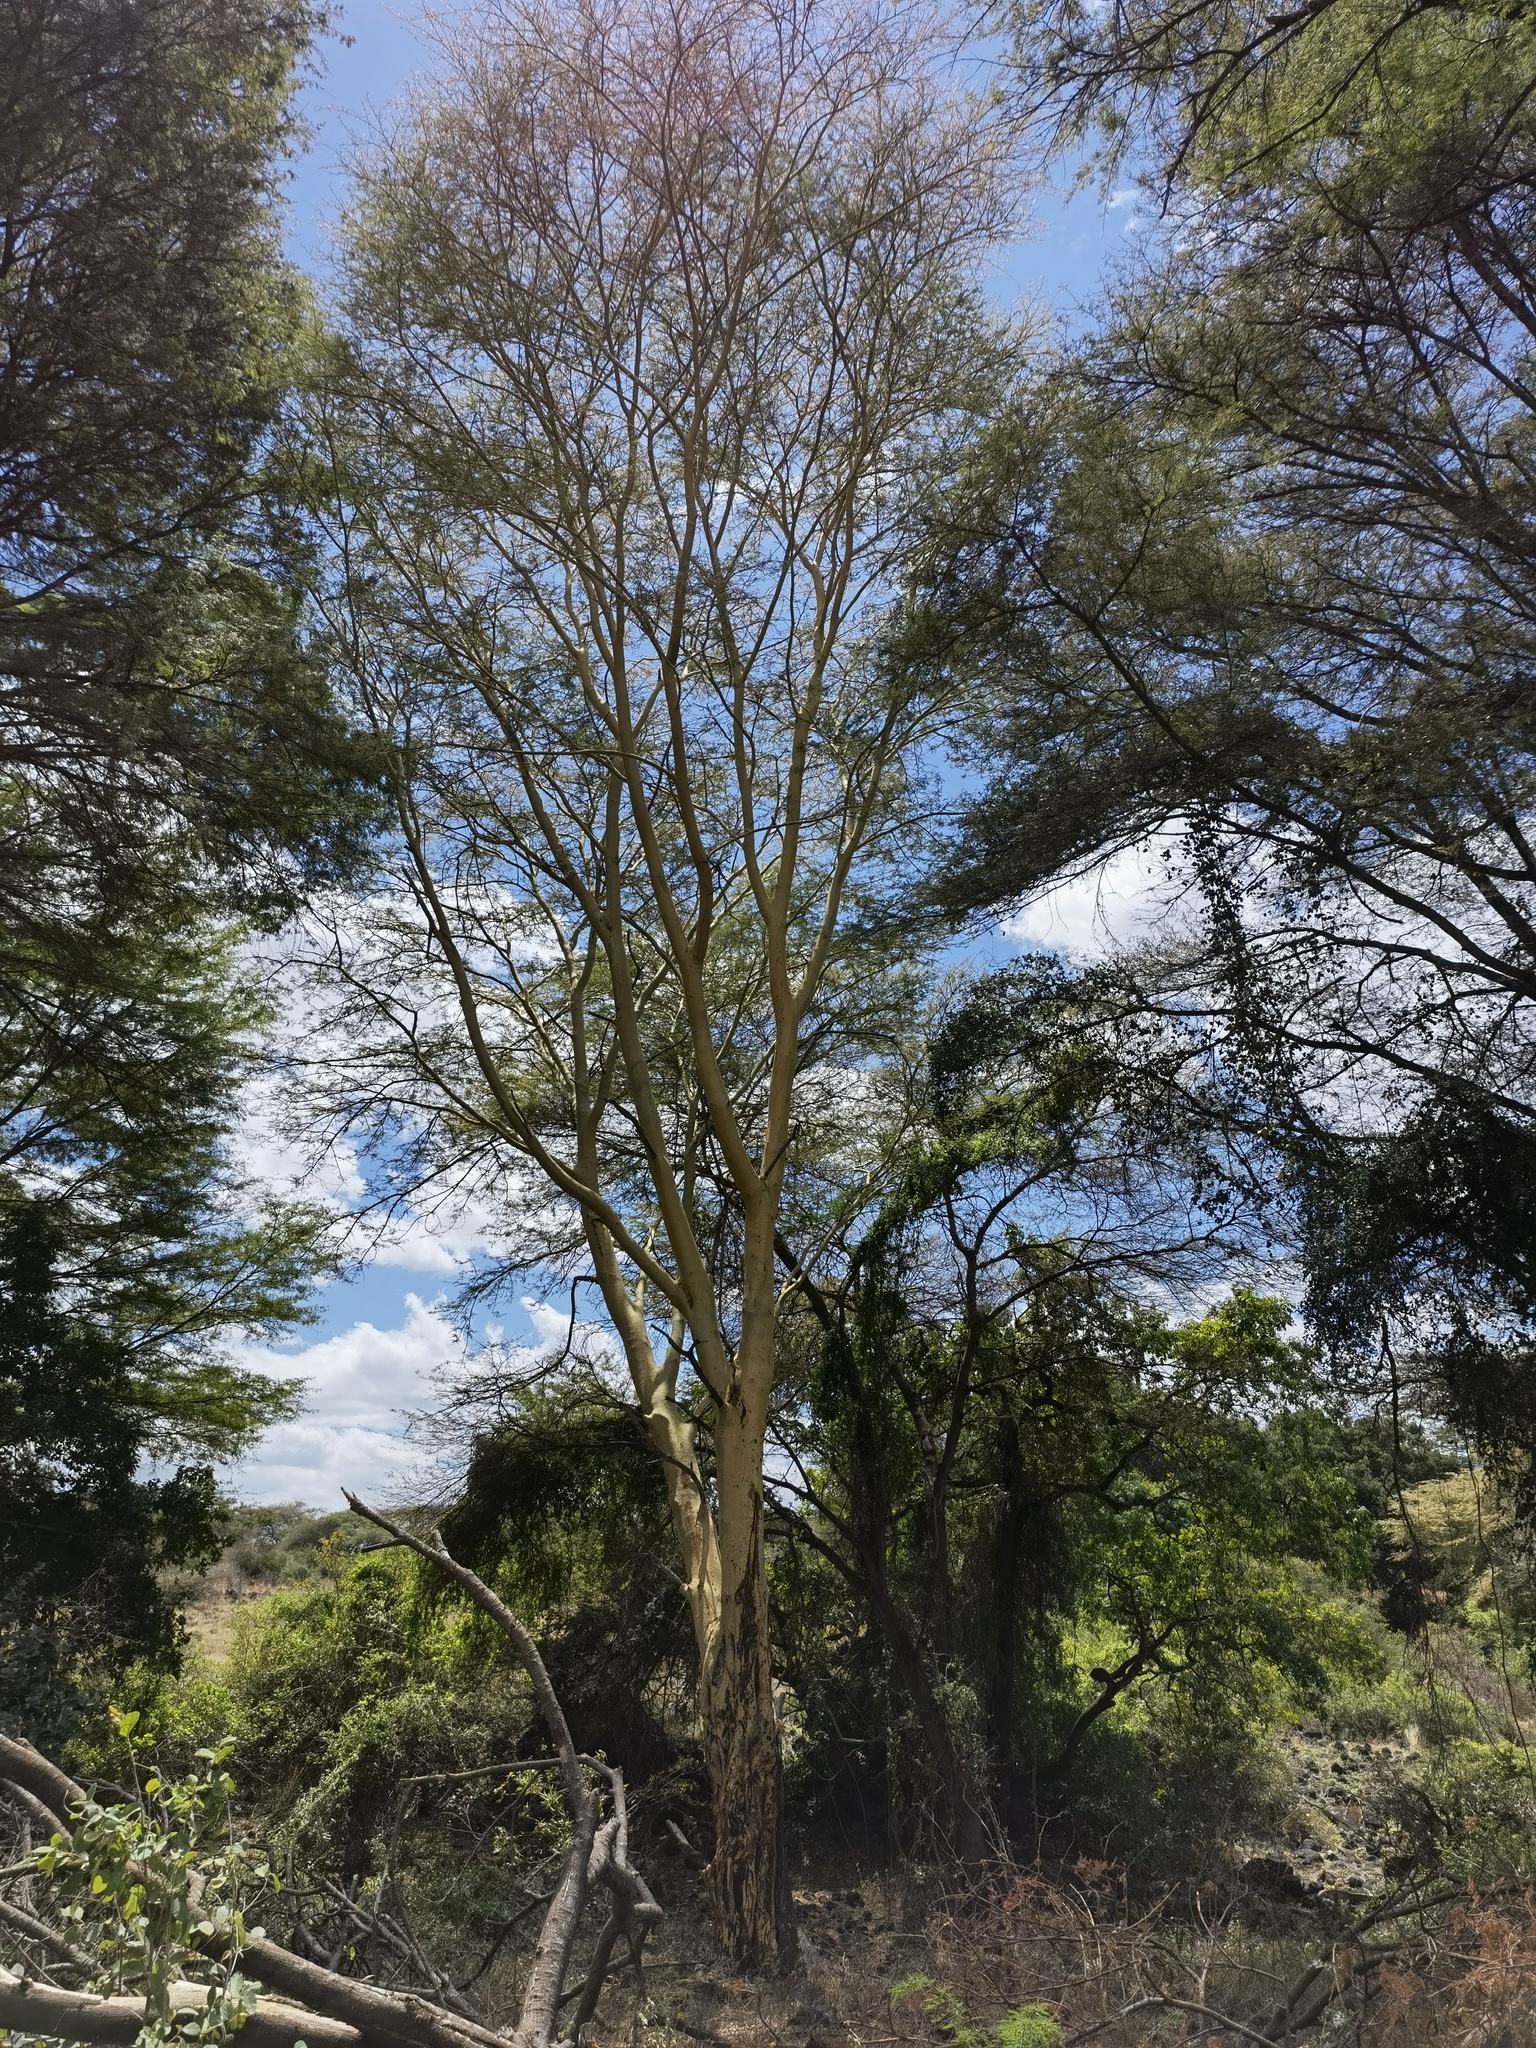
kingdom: Plantae
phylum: Tracheophyta
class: Magnoliopsida
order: Fabales
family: Fabaceae
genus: Vachellia
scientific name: Vachellia xanthophloea
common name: Fever tree
